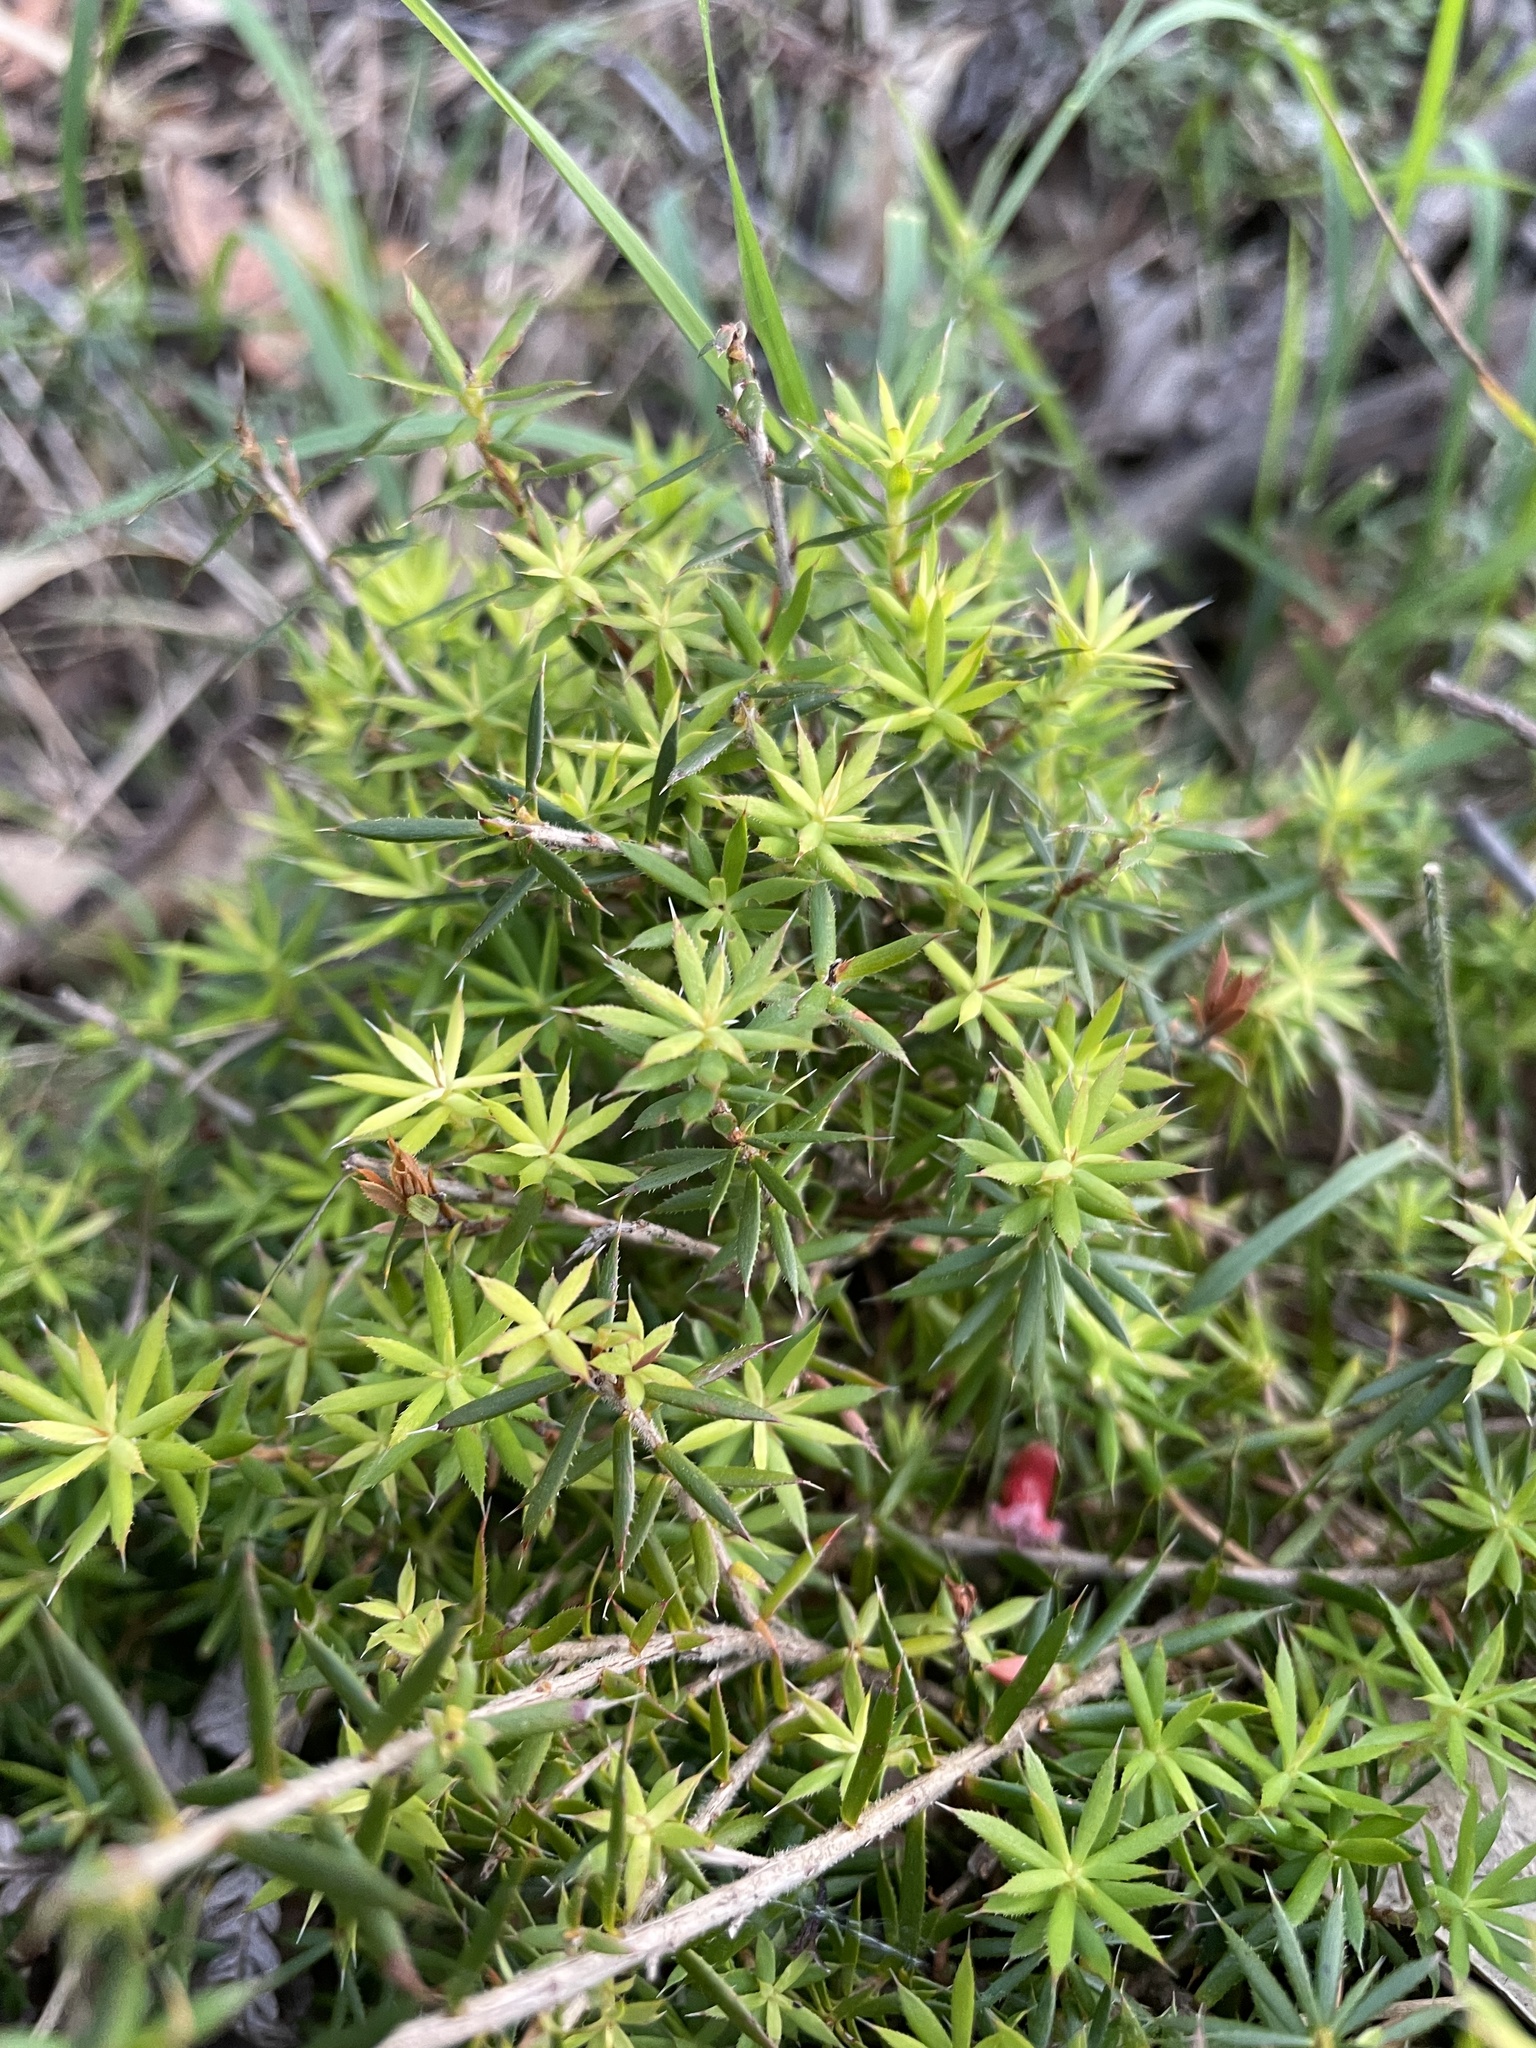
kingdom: Plantae
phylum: Tracheophyta
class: Magnoliopsida
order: Ericales
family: Ericaceae
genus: Styphelia
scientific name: Styphelia humifusa
